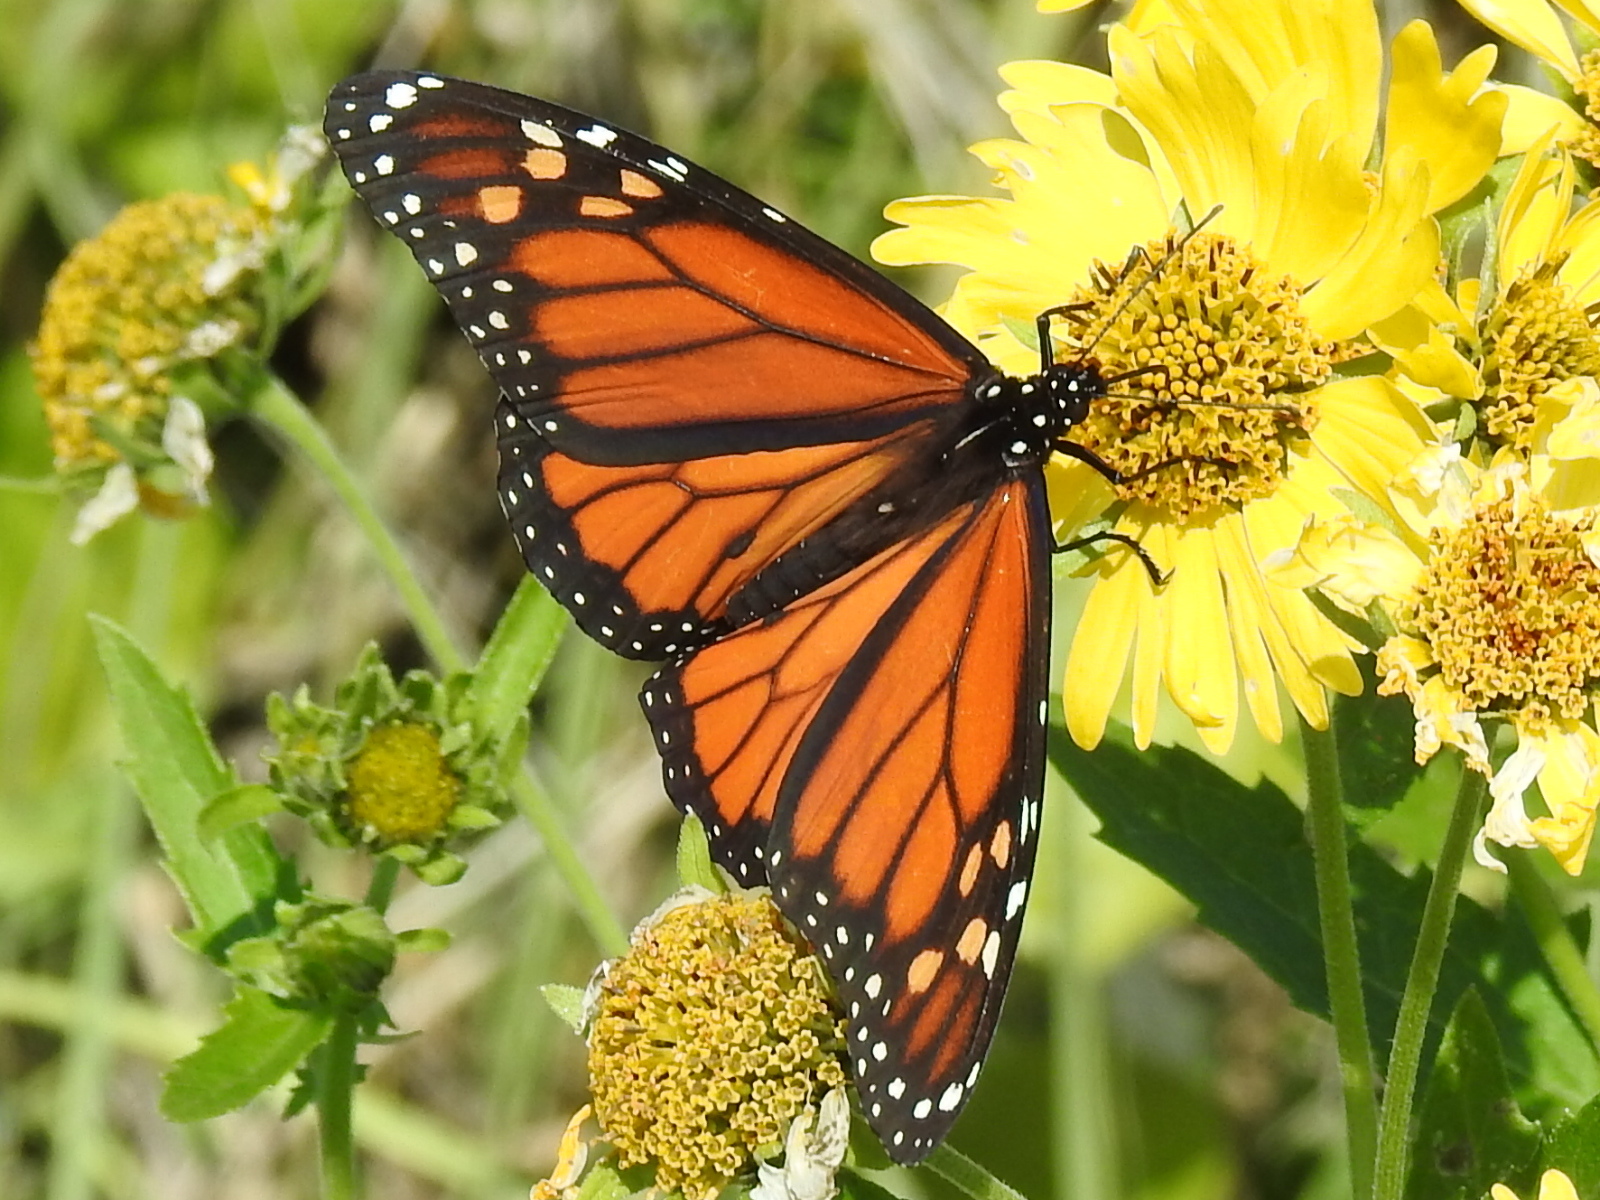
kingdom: Animalia
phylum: Arthropoda
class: Insecta
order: Lepidoptera
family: Nymphalidae
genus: Danaus
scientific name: Danaus plexippus
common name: Monarch
